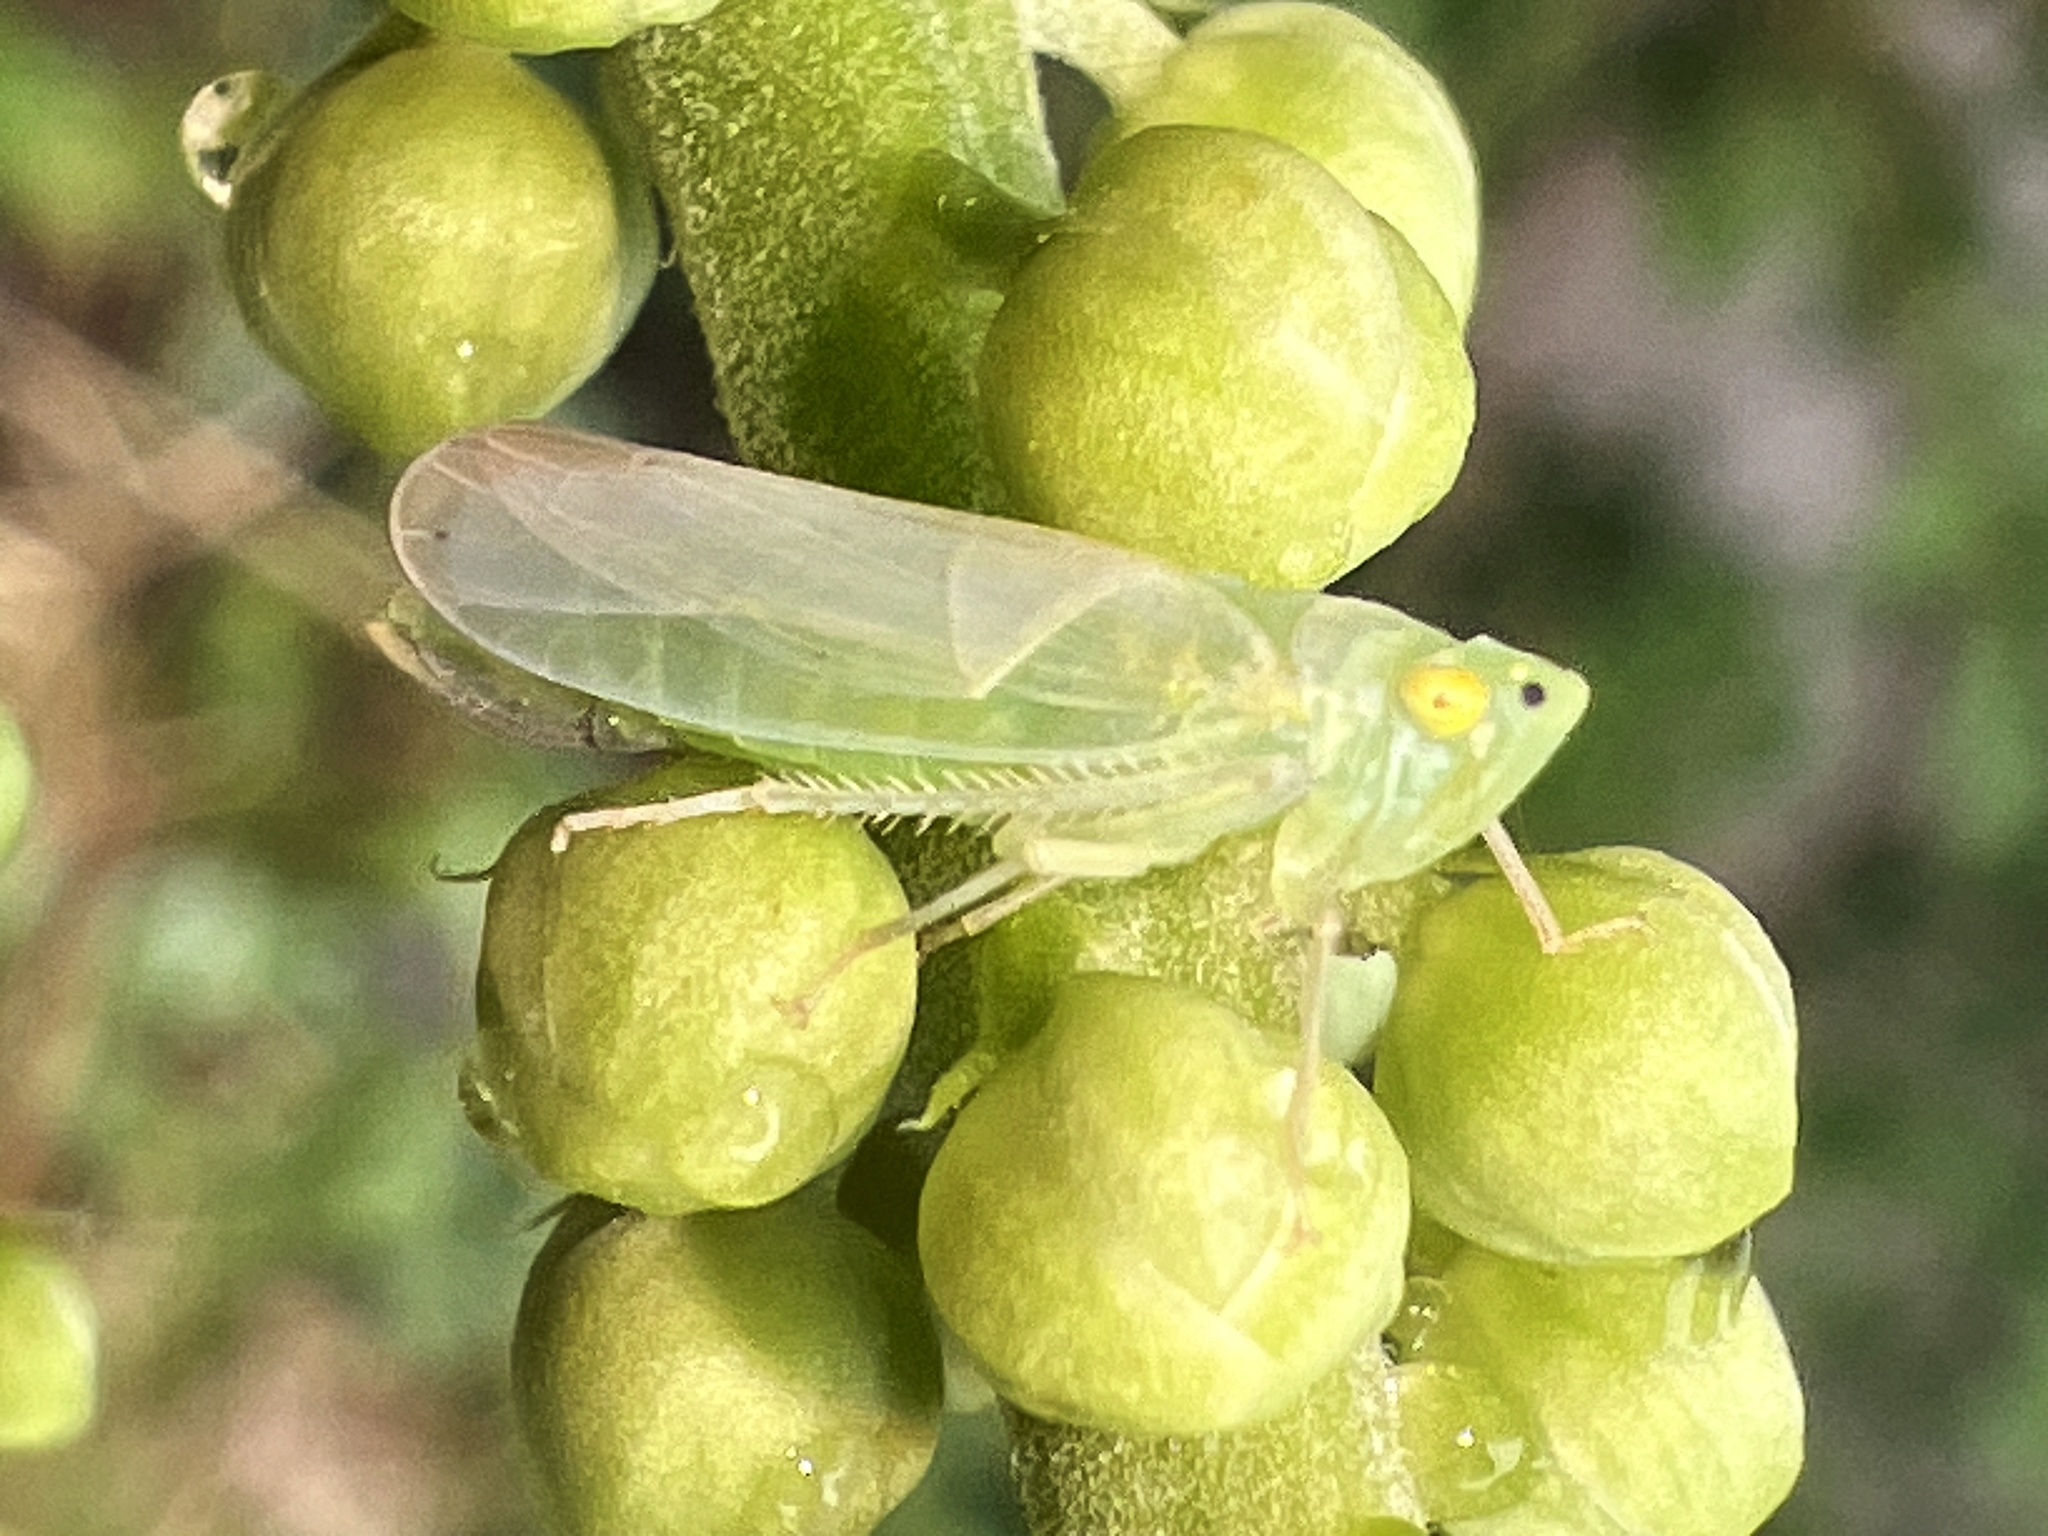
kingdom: Animalia
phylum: Arthropoda
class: Insecta
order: Hemiptera
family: Cicadellidae
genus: Pagaronia
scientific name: Pagaronia minor
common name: Leafhopper
